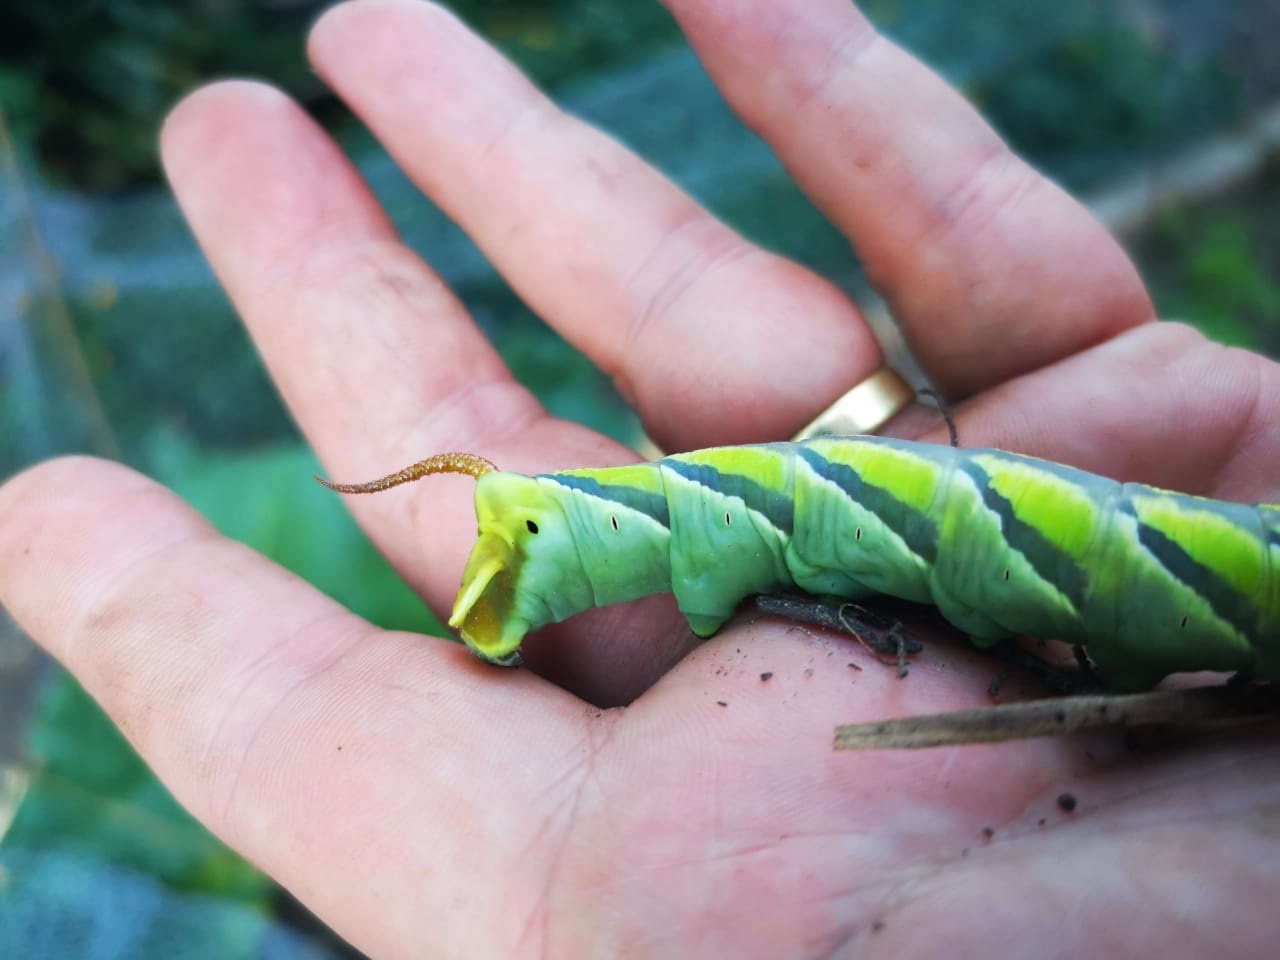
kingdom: Animalia
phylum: Arthropoda
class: Insecta
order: Lepidoptera
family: Sphingidae
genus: Coelonia
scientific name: Coelonia fulvinotata
